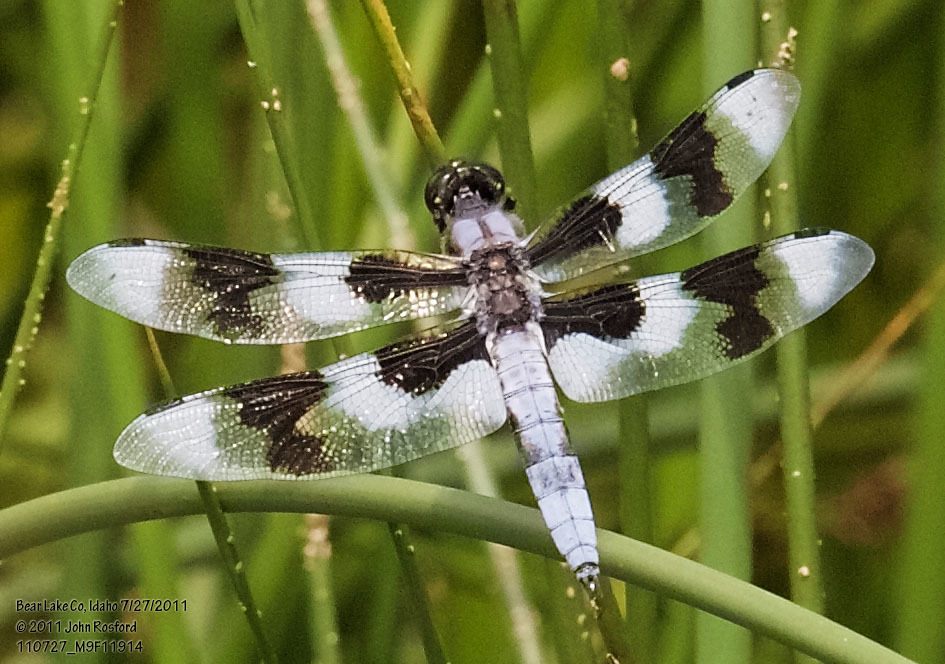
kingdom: Animalia
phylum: Arthropoda
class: Insecta
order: Odonata
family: Libellulidae
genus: Libellula
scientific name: Libellula forensis
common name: Eight-spotted skimmer
